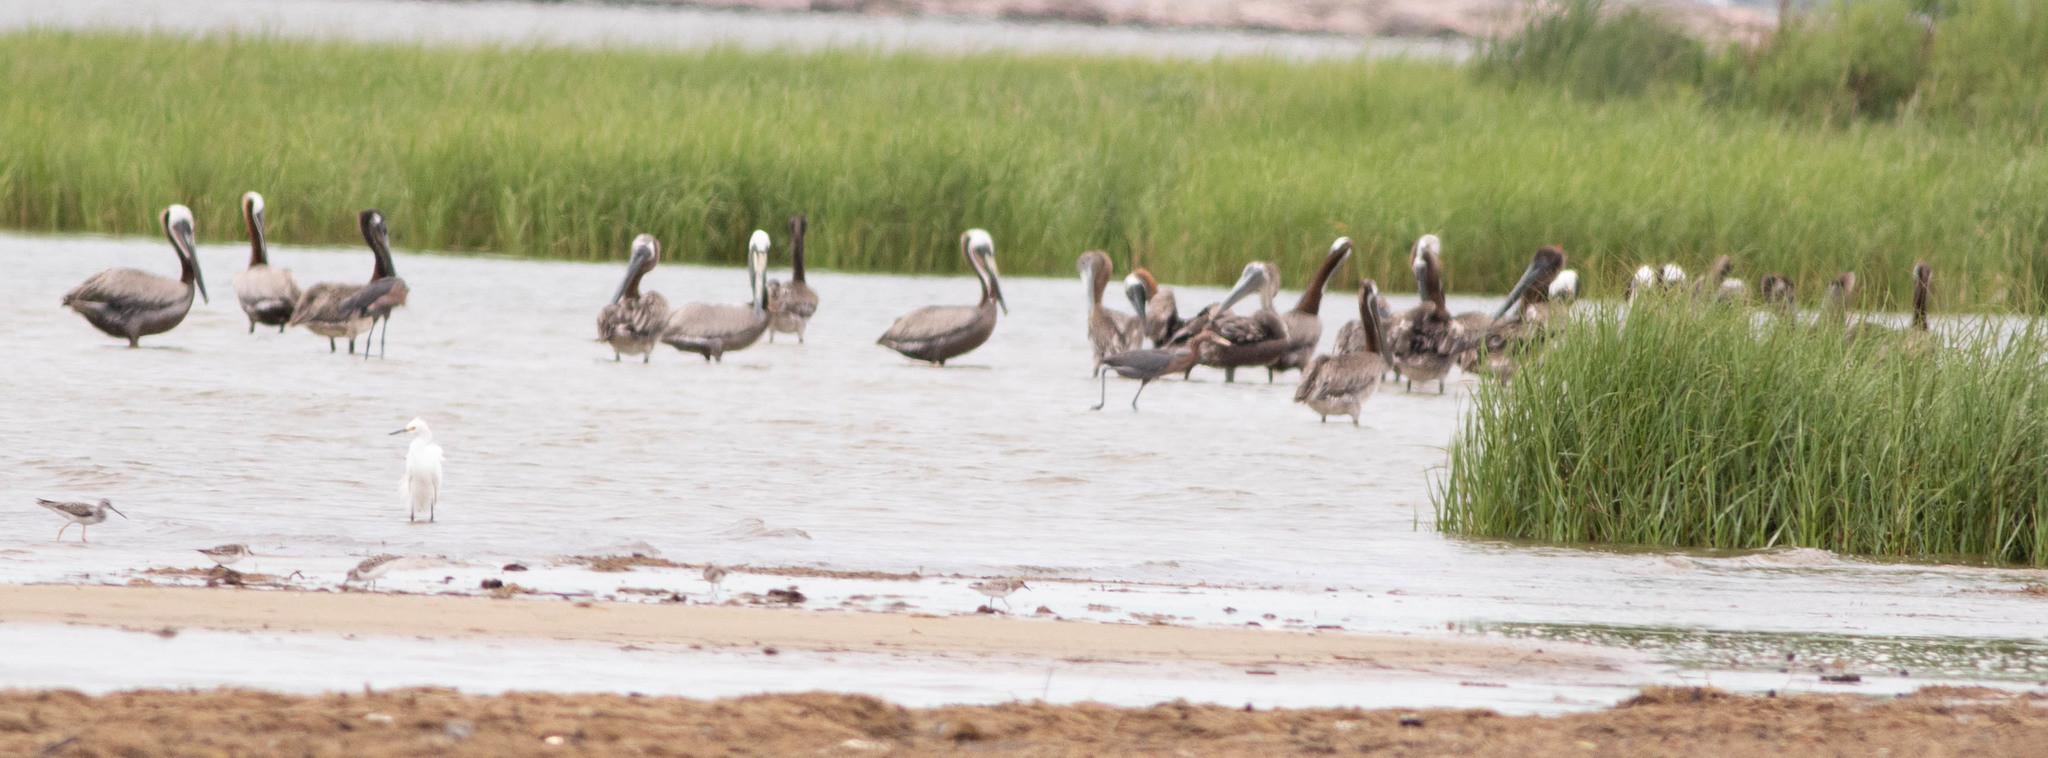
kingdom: Animalia
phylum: Chordata
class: Aves
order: Pelecaniformes
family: Pelecanidae
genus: Pelecanus
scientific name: Pelecanus occidentalis
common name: Brown pelican
